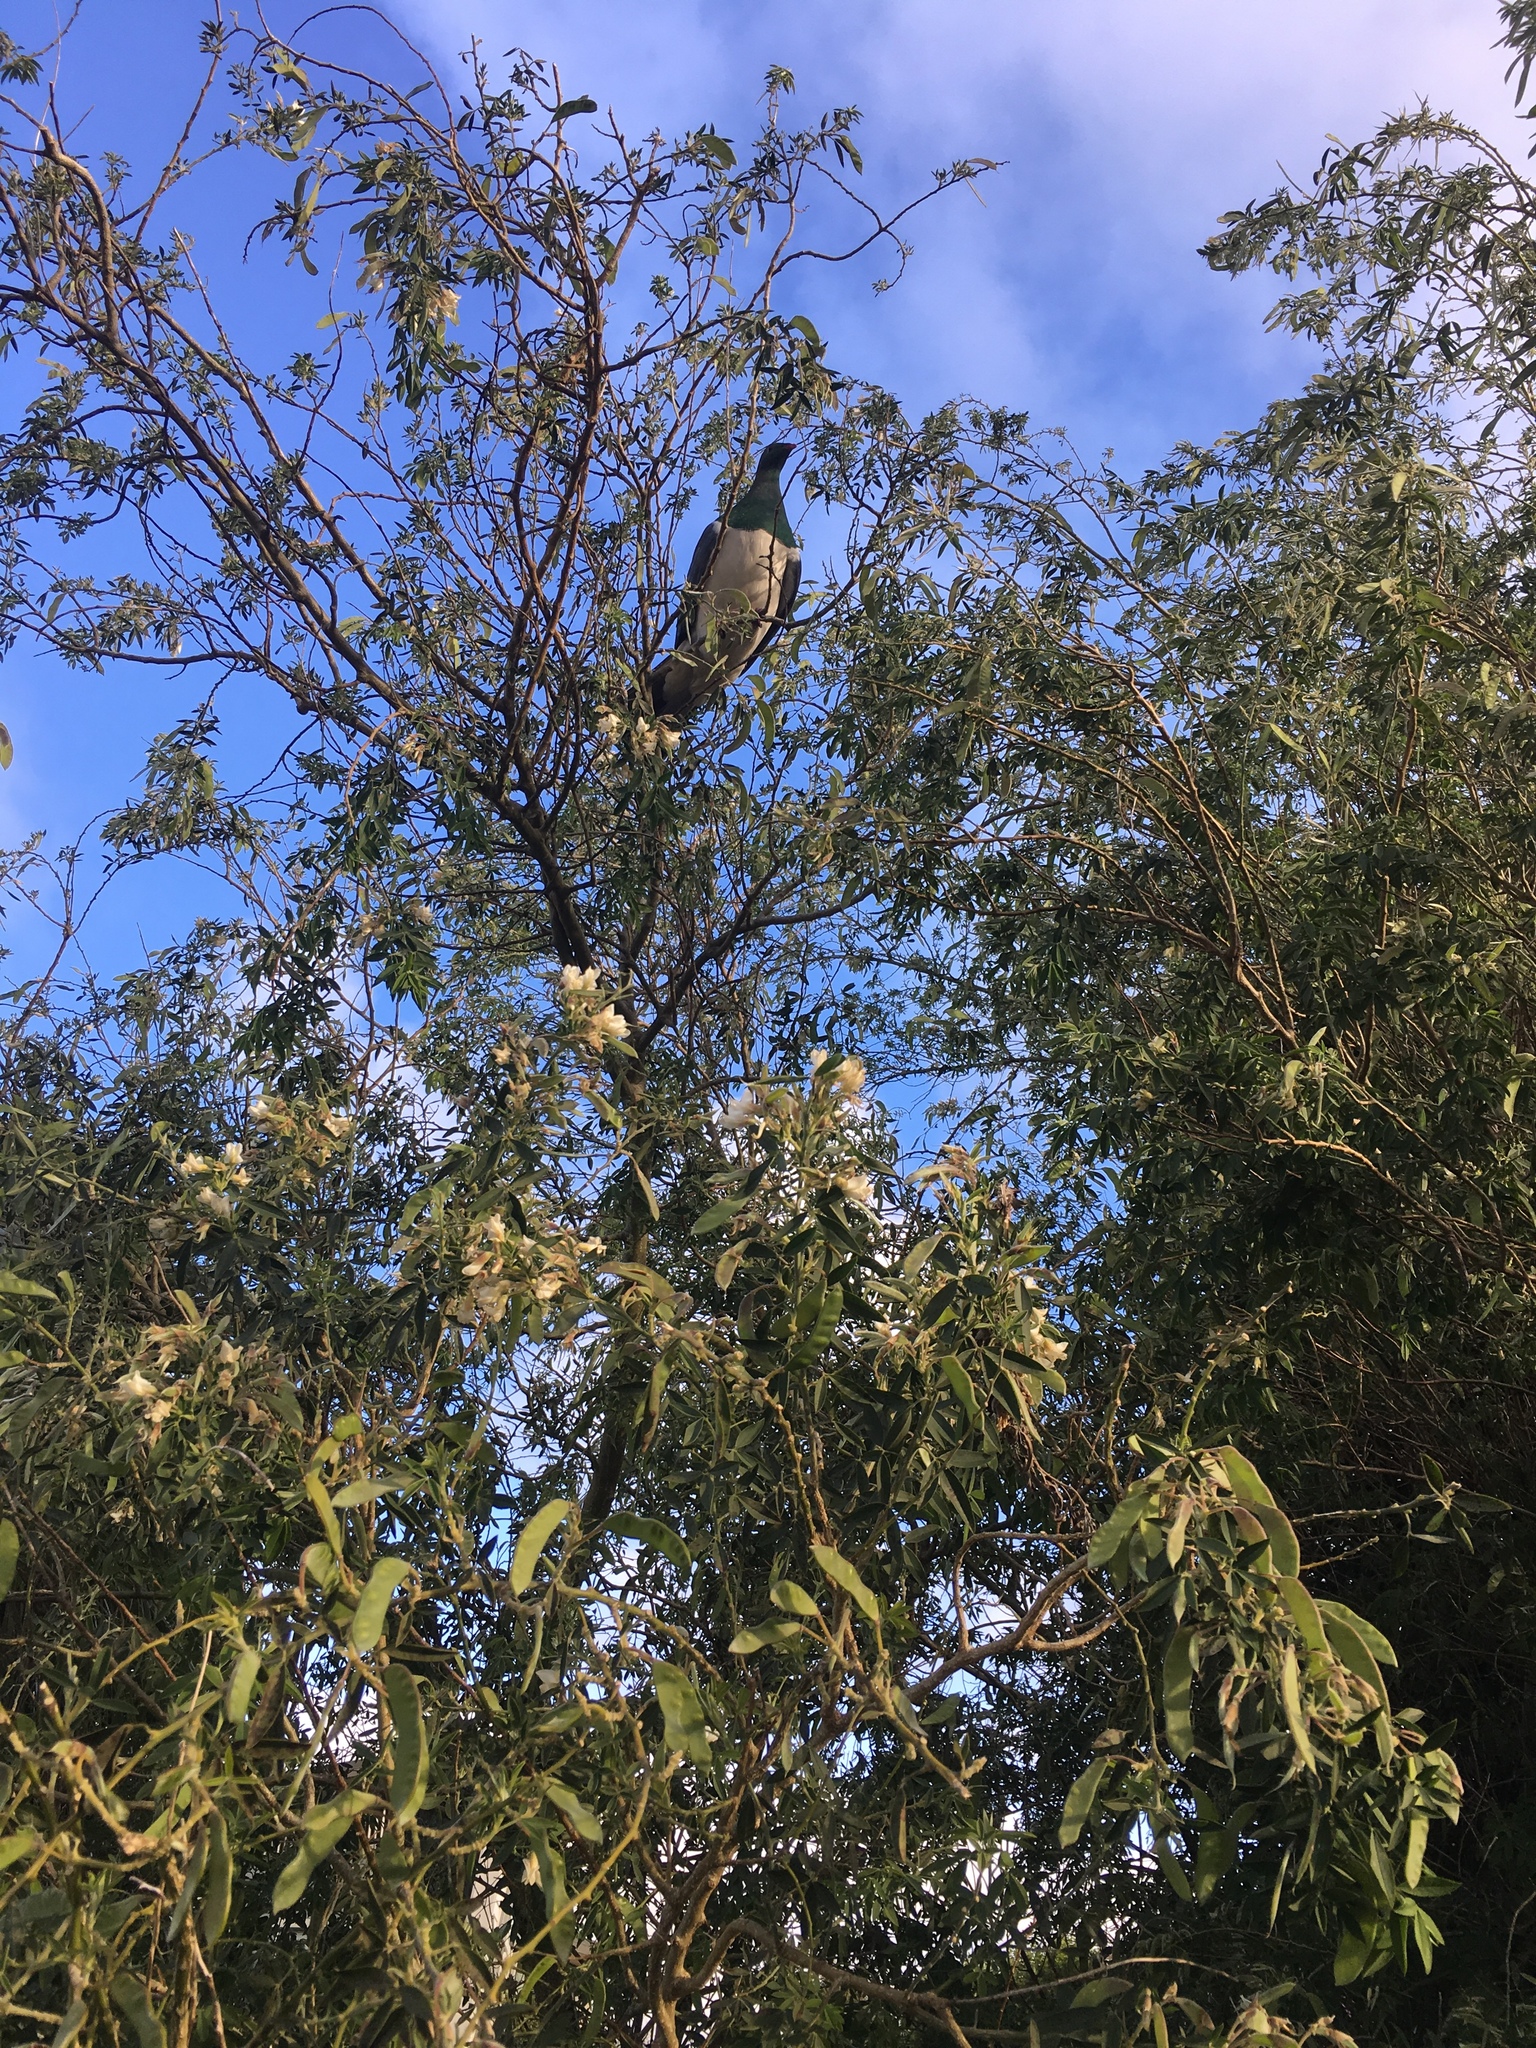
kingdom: Animalia
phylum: Chordata
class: Aves
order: Columbiformes
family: Columbidae
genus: Hemiphaga
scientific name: Hemiphaga novaeseelandiae
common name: New zealand pigeon
